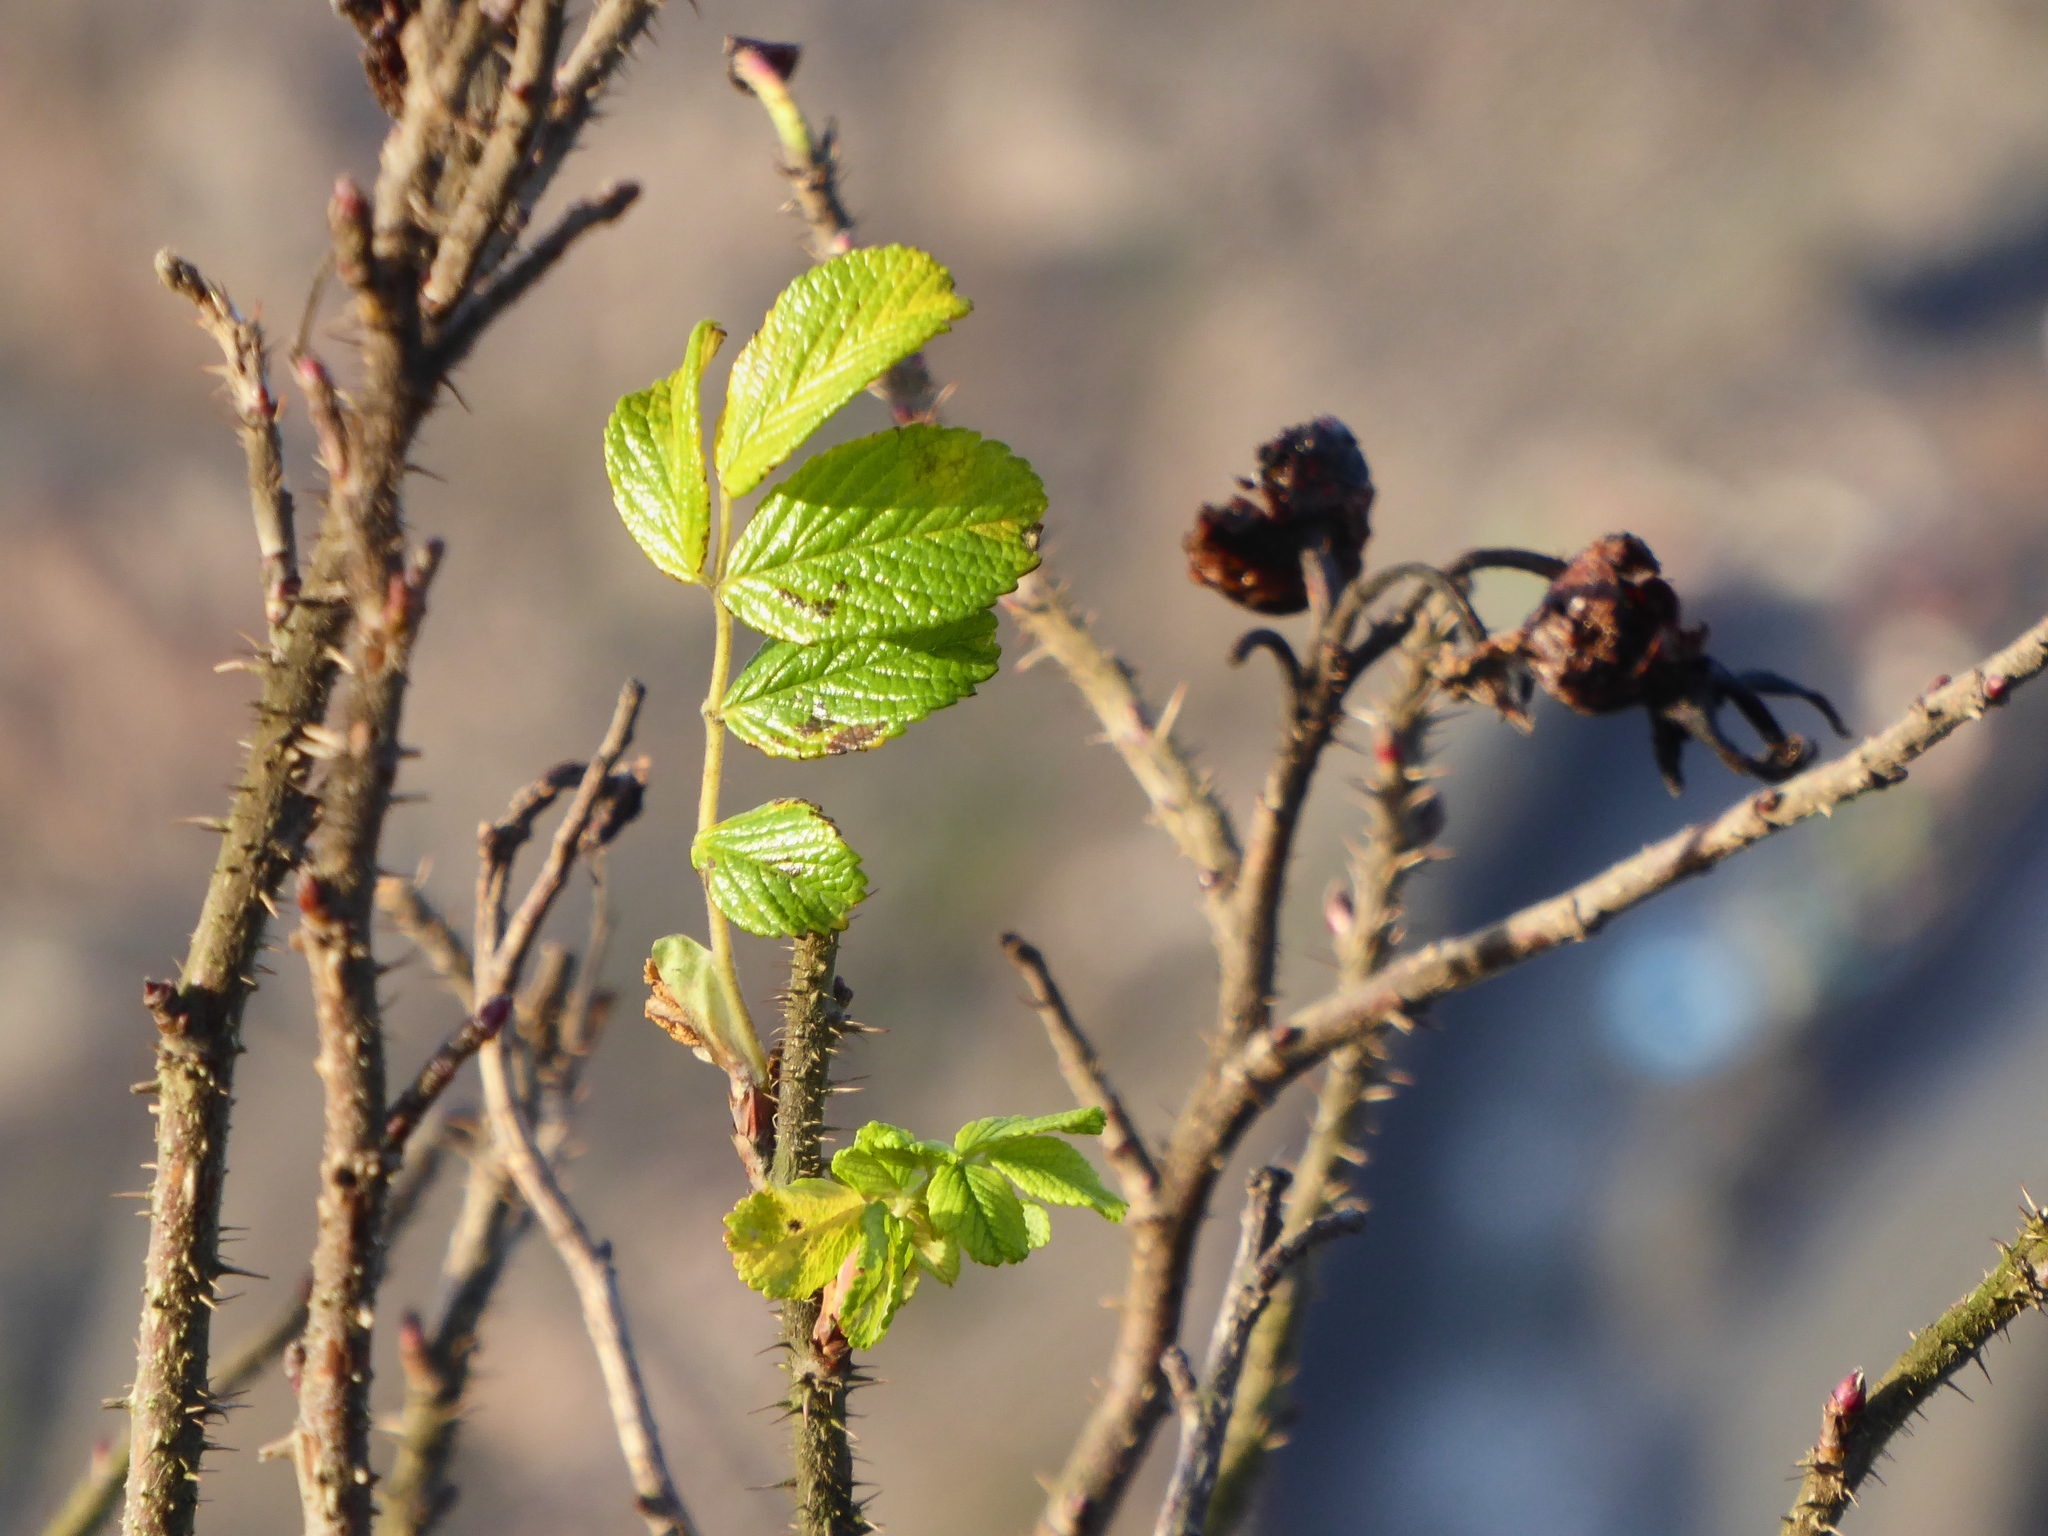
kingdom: Plantae
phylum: Tracheophyta
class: Magnoliopsida
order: Rosales
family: Rosaceae
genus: Rosa
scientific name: Rosa rugosa
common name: Japanese rose
